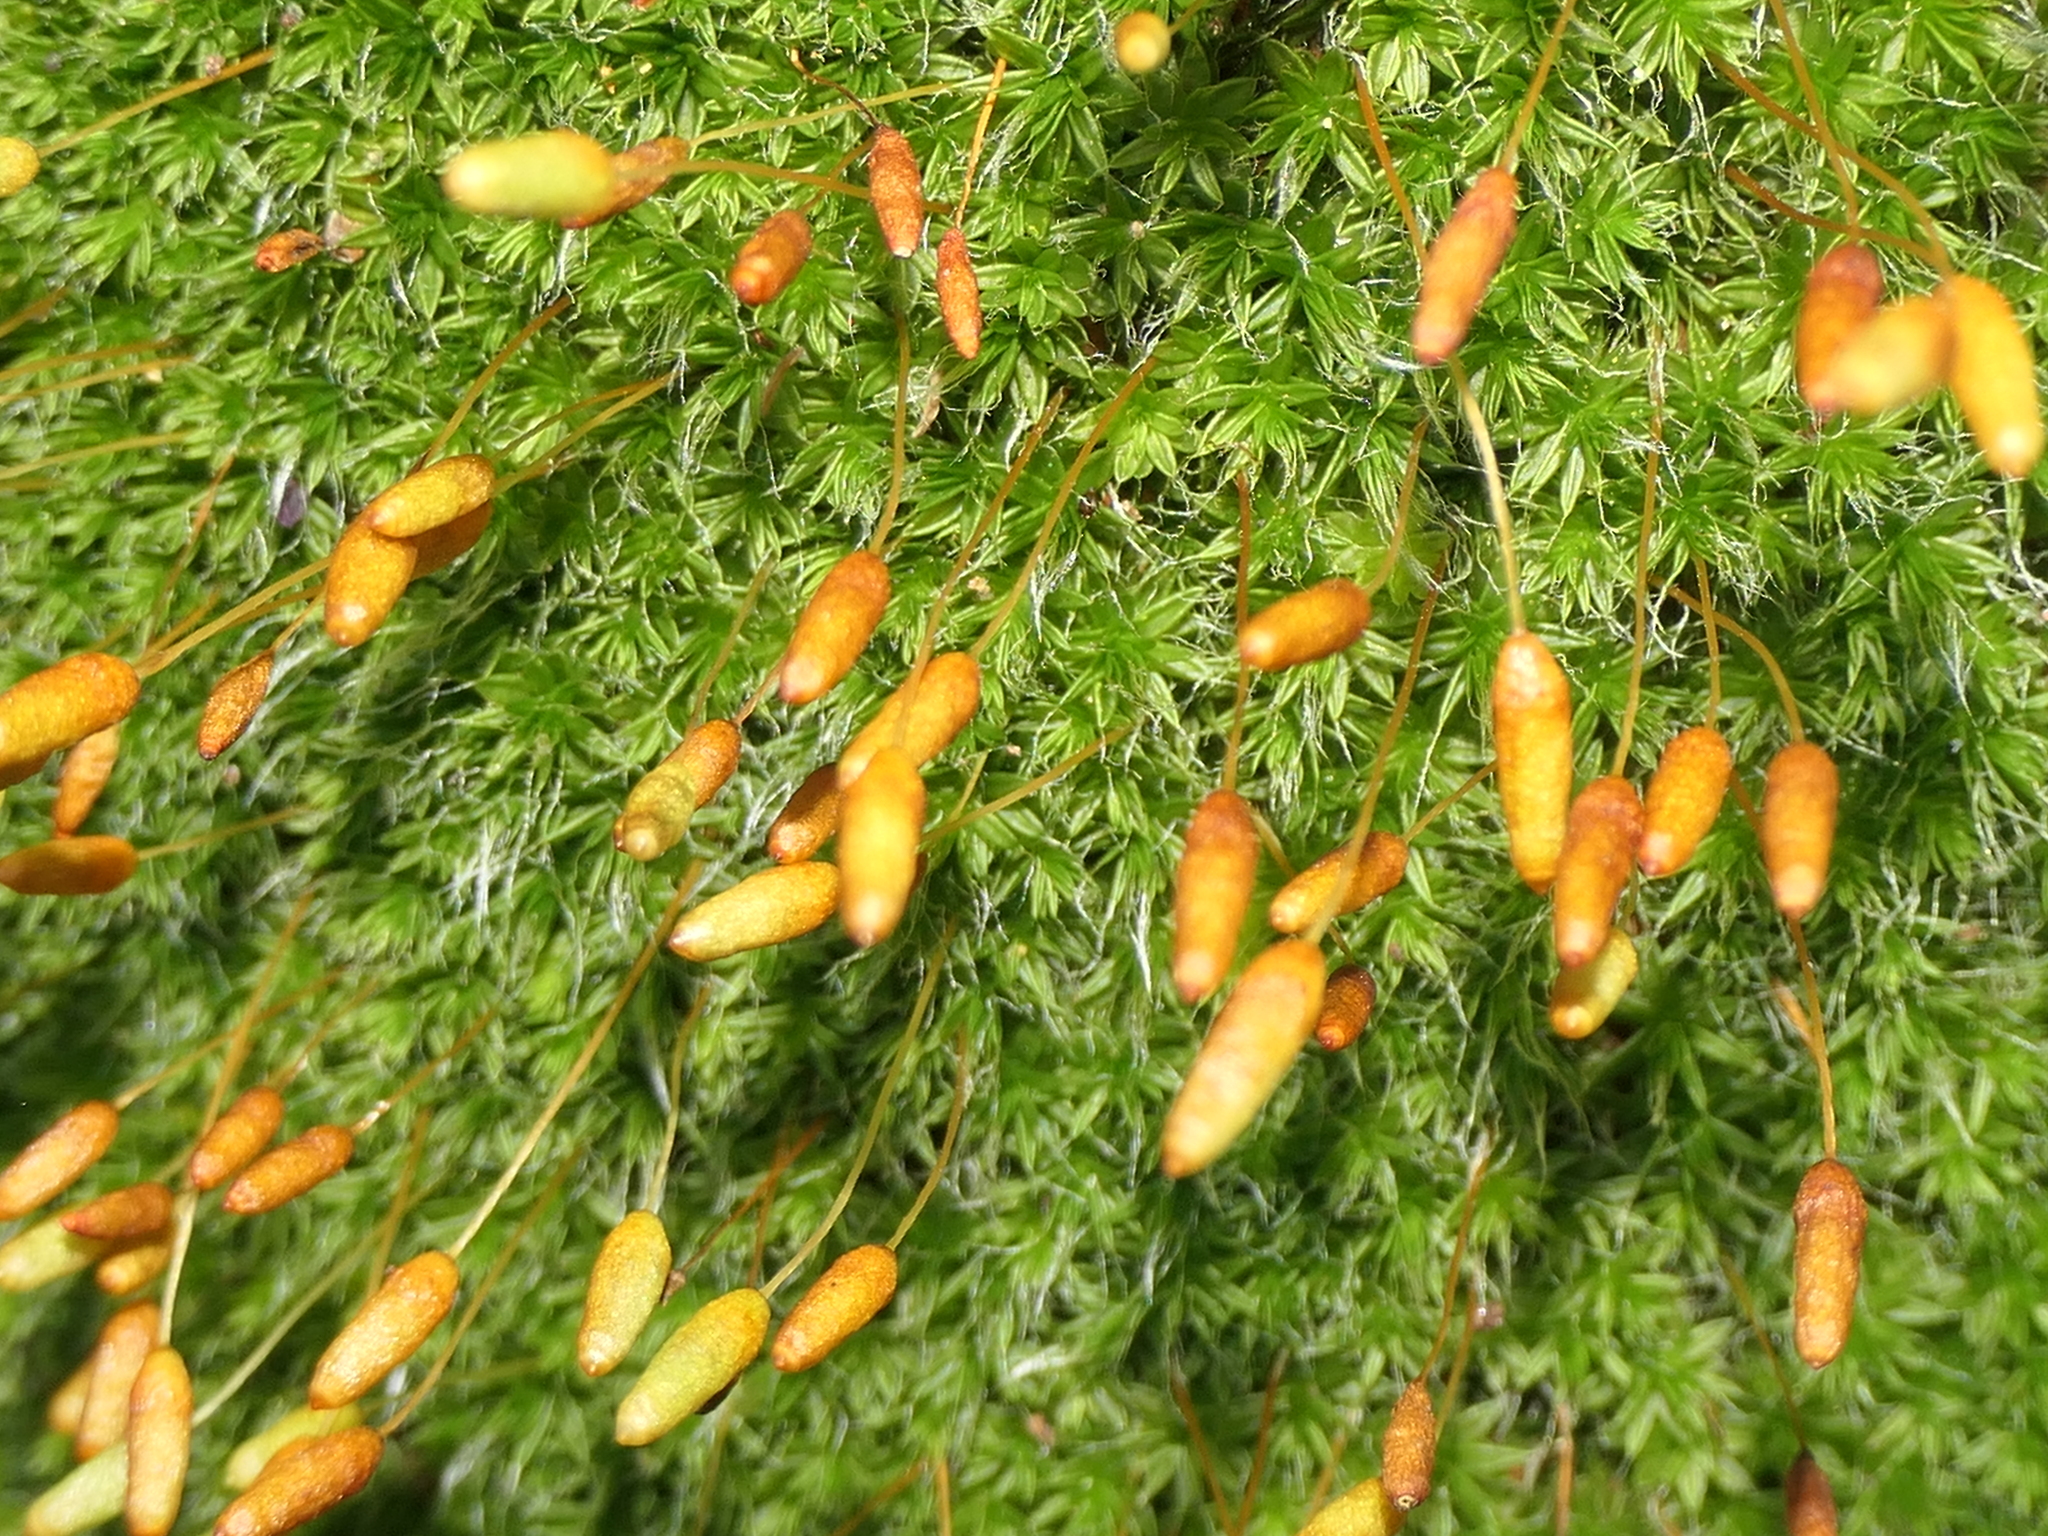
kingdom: Plantae
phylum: Bryophyta
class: Bryopsida
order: Bryales
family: Leptostomataceae
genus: Leptostomum
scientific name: Leptostomum macrocarpon
